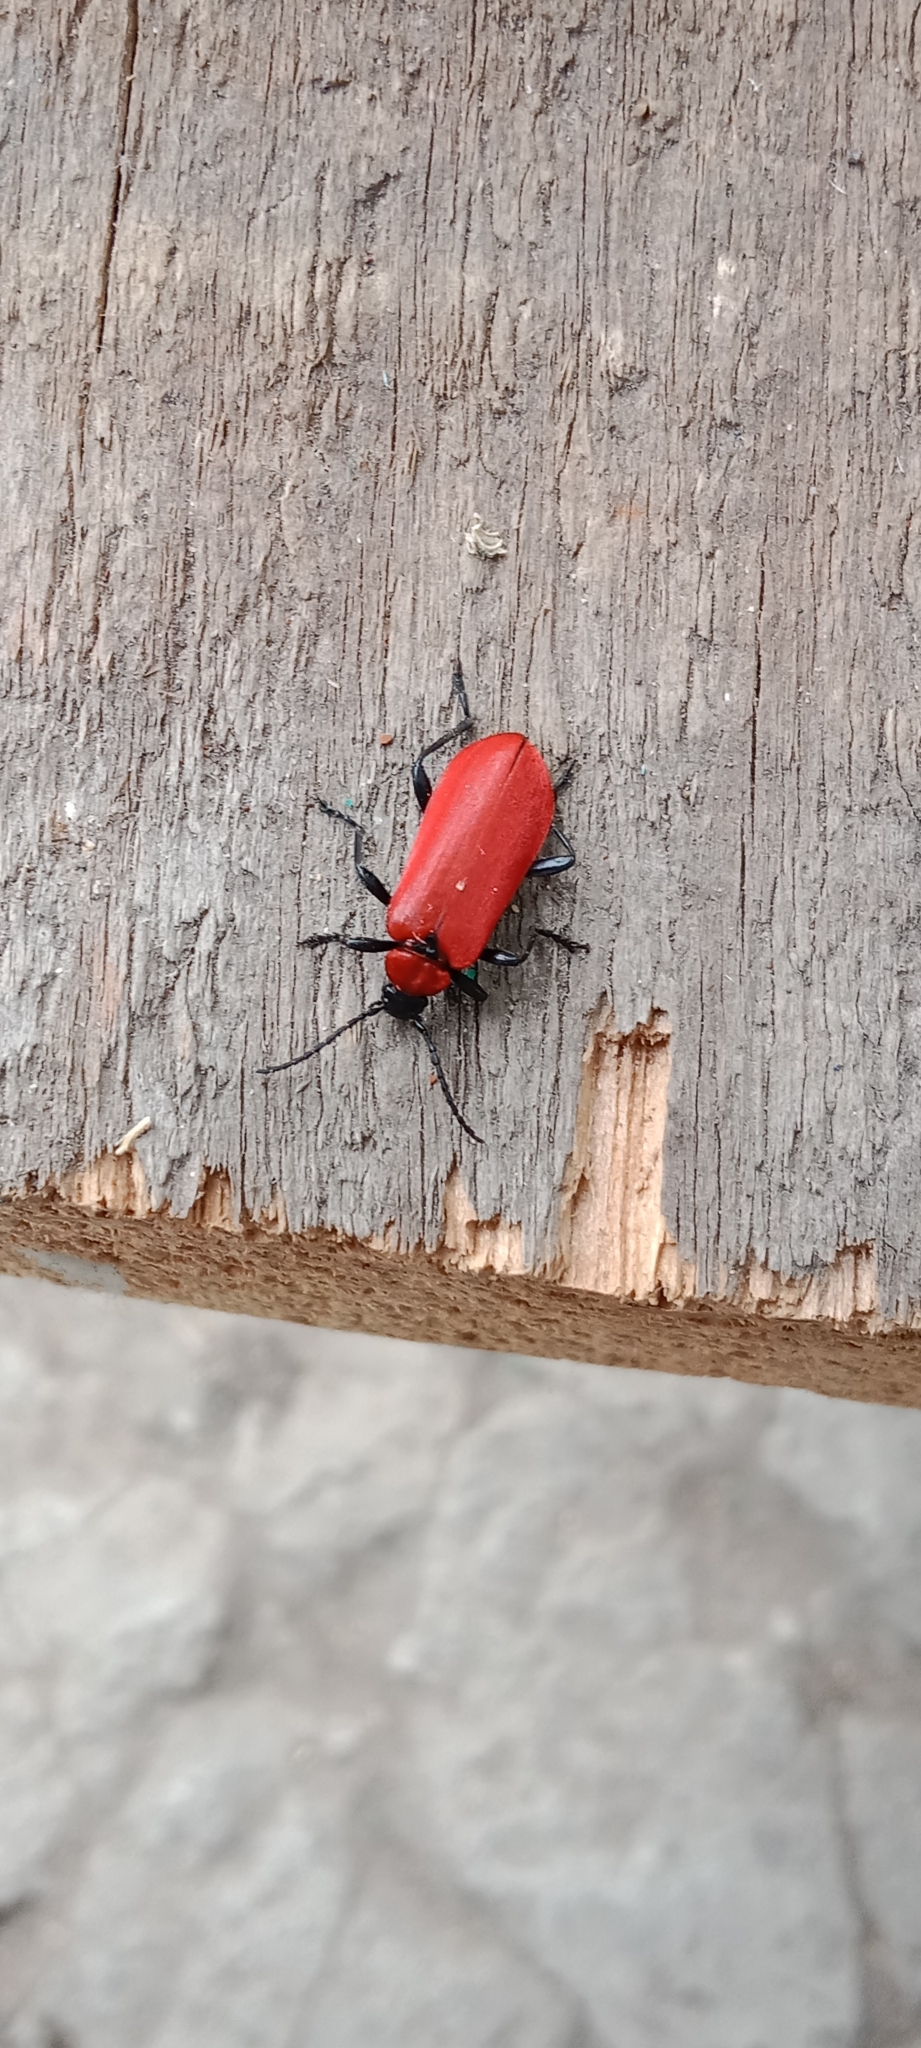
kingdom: Animalia
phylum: Arthropoda
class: Insecta
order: Coleoptera
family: Pyrochroidae
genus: Pyrochroa
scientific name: Pyrochroa coccinea
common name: Black-headed cardinal beetle
